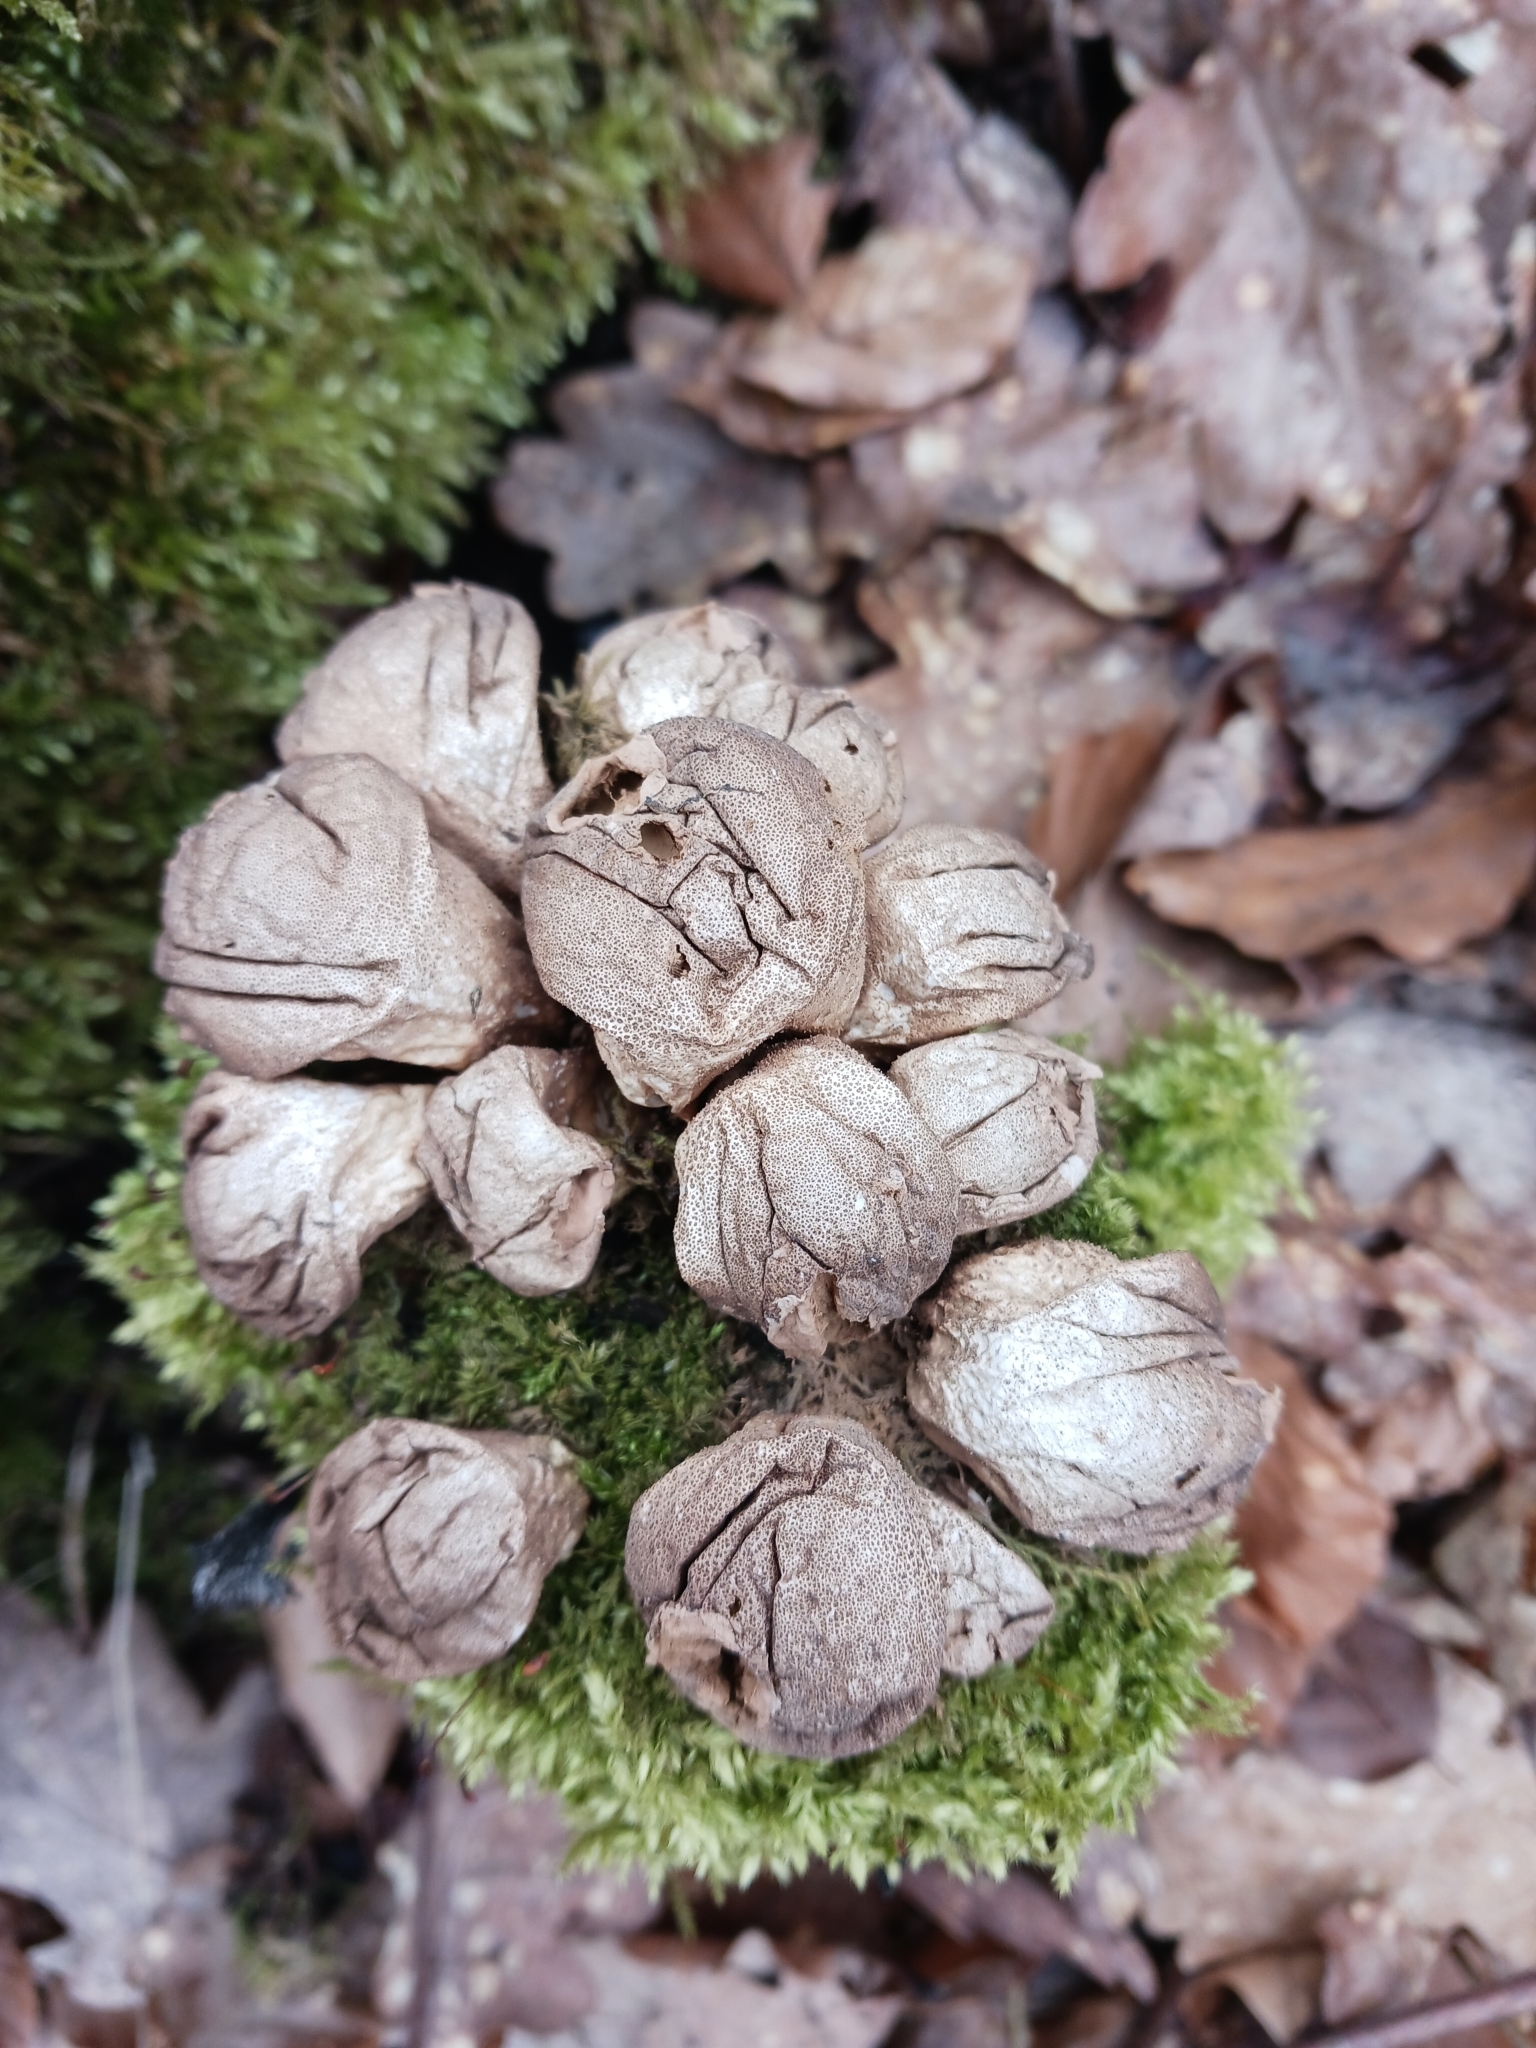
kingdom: Fungi
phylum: Basidiomycota
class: Agaricomycetes
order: Agaricales
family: Lycoperdaceae
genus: Apioperdon
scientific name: Apioperdon pyriforme
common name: Pear-shaped puffball
